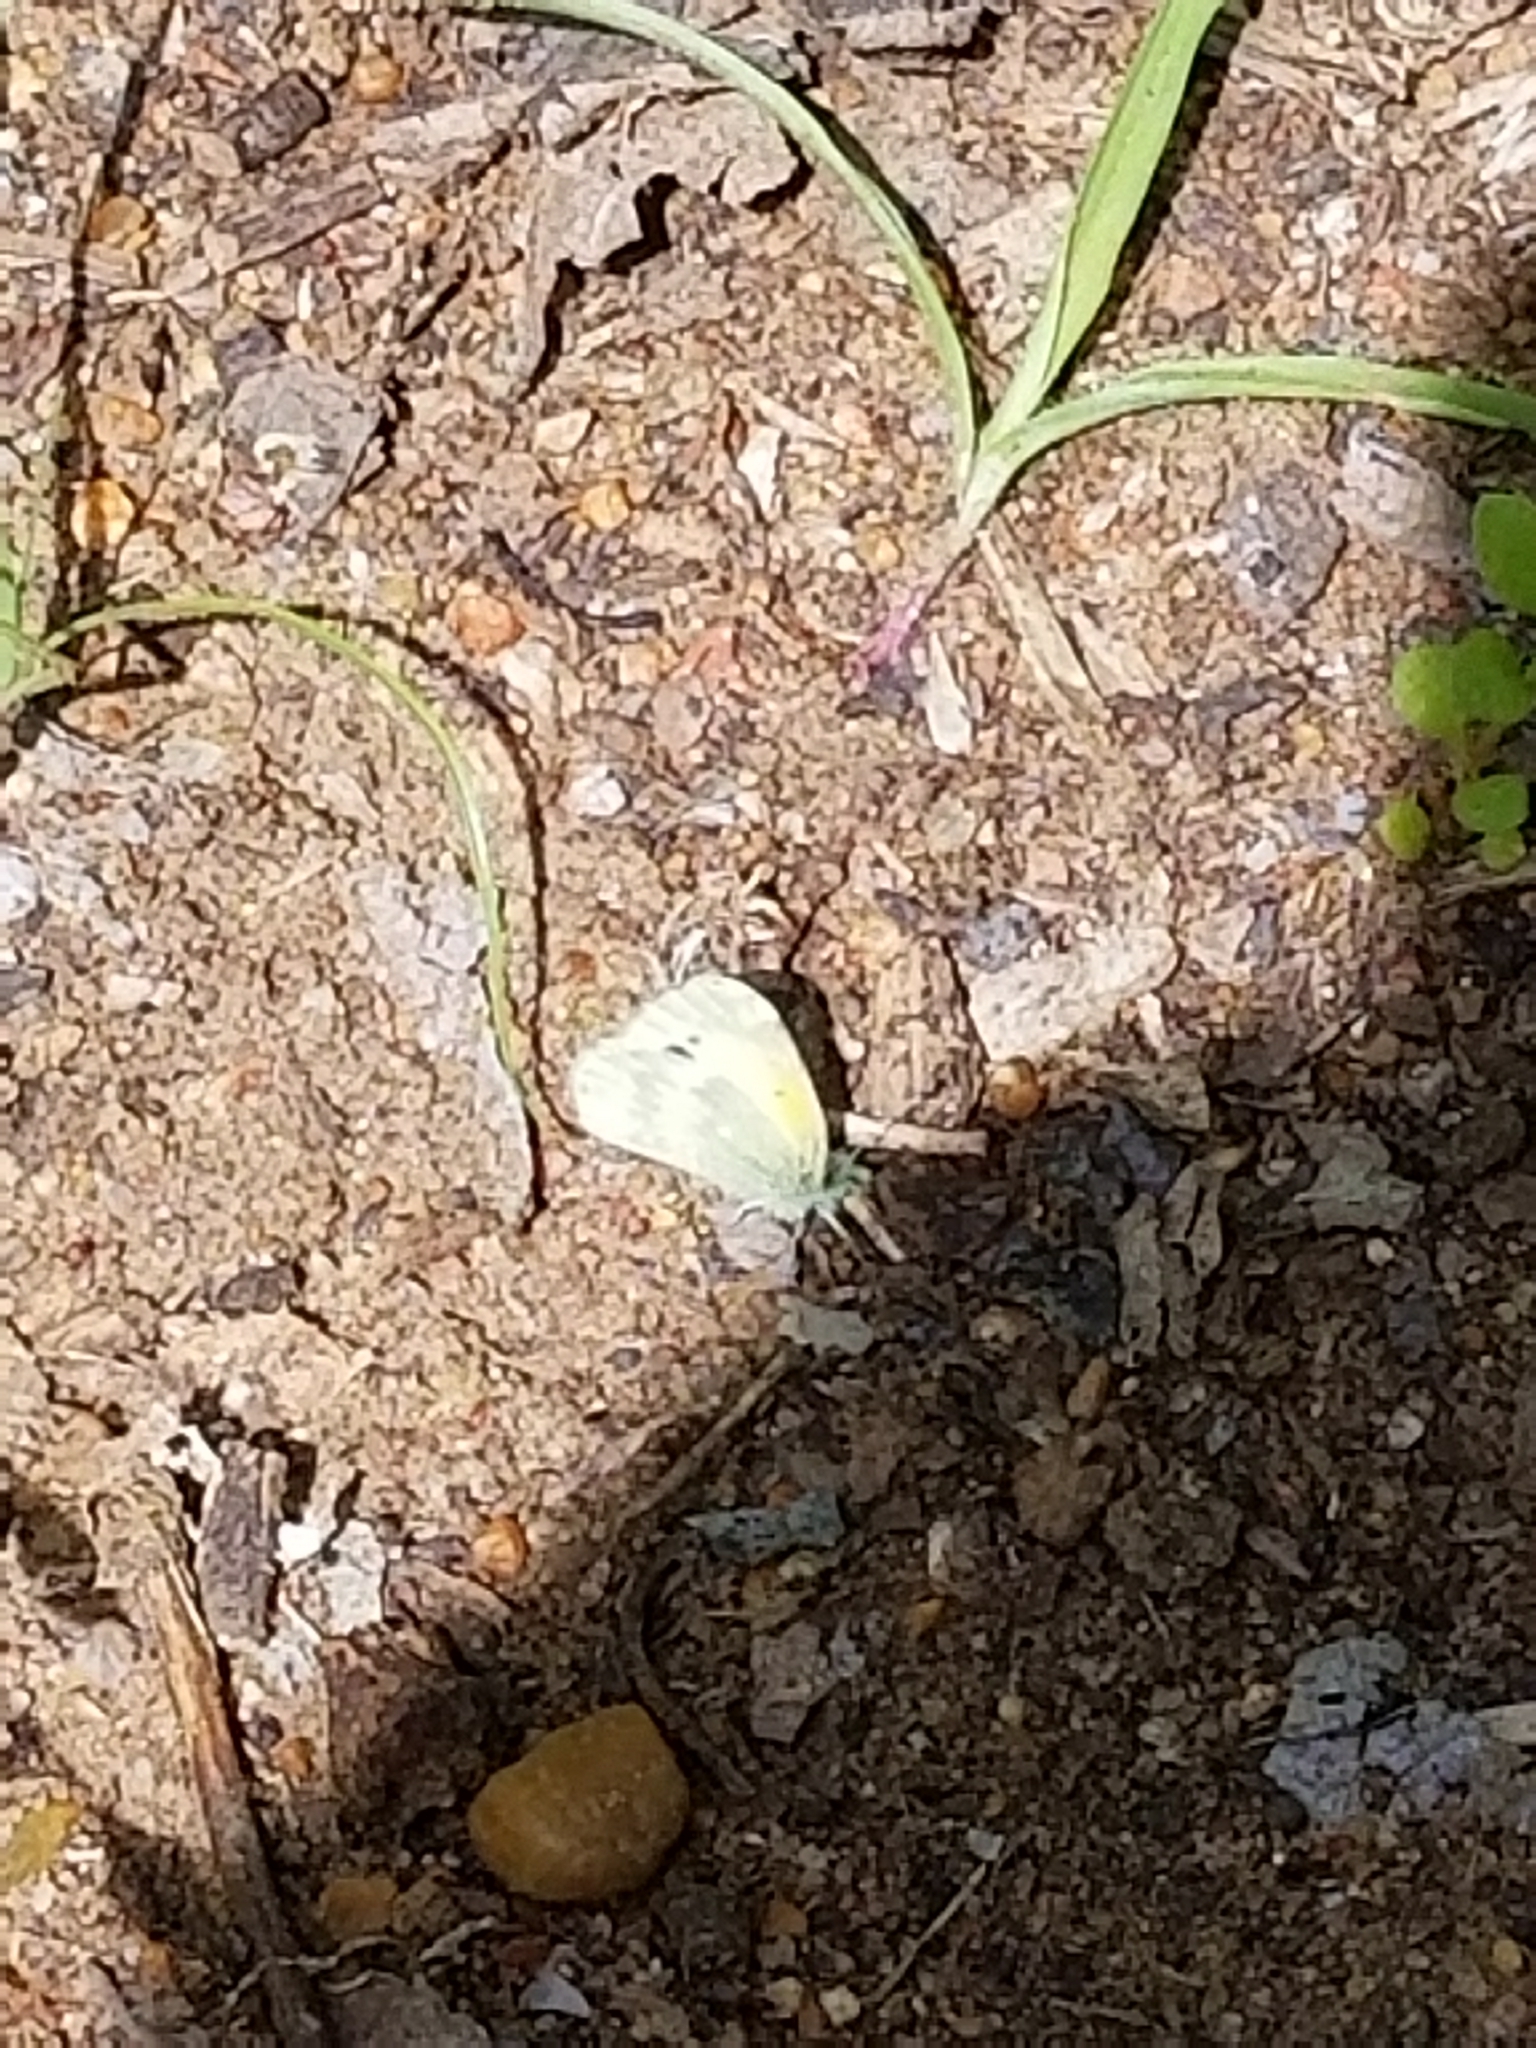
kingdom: Animalia
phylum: Arthropoda
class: Insecta
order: Lepidoptera
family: Pieridae
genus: Nathalis
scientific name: Nathalis iole
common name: Dainty sulphur
